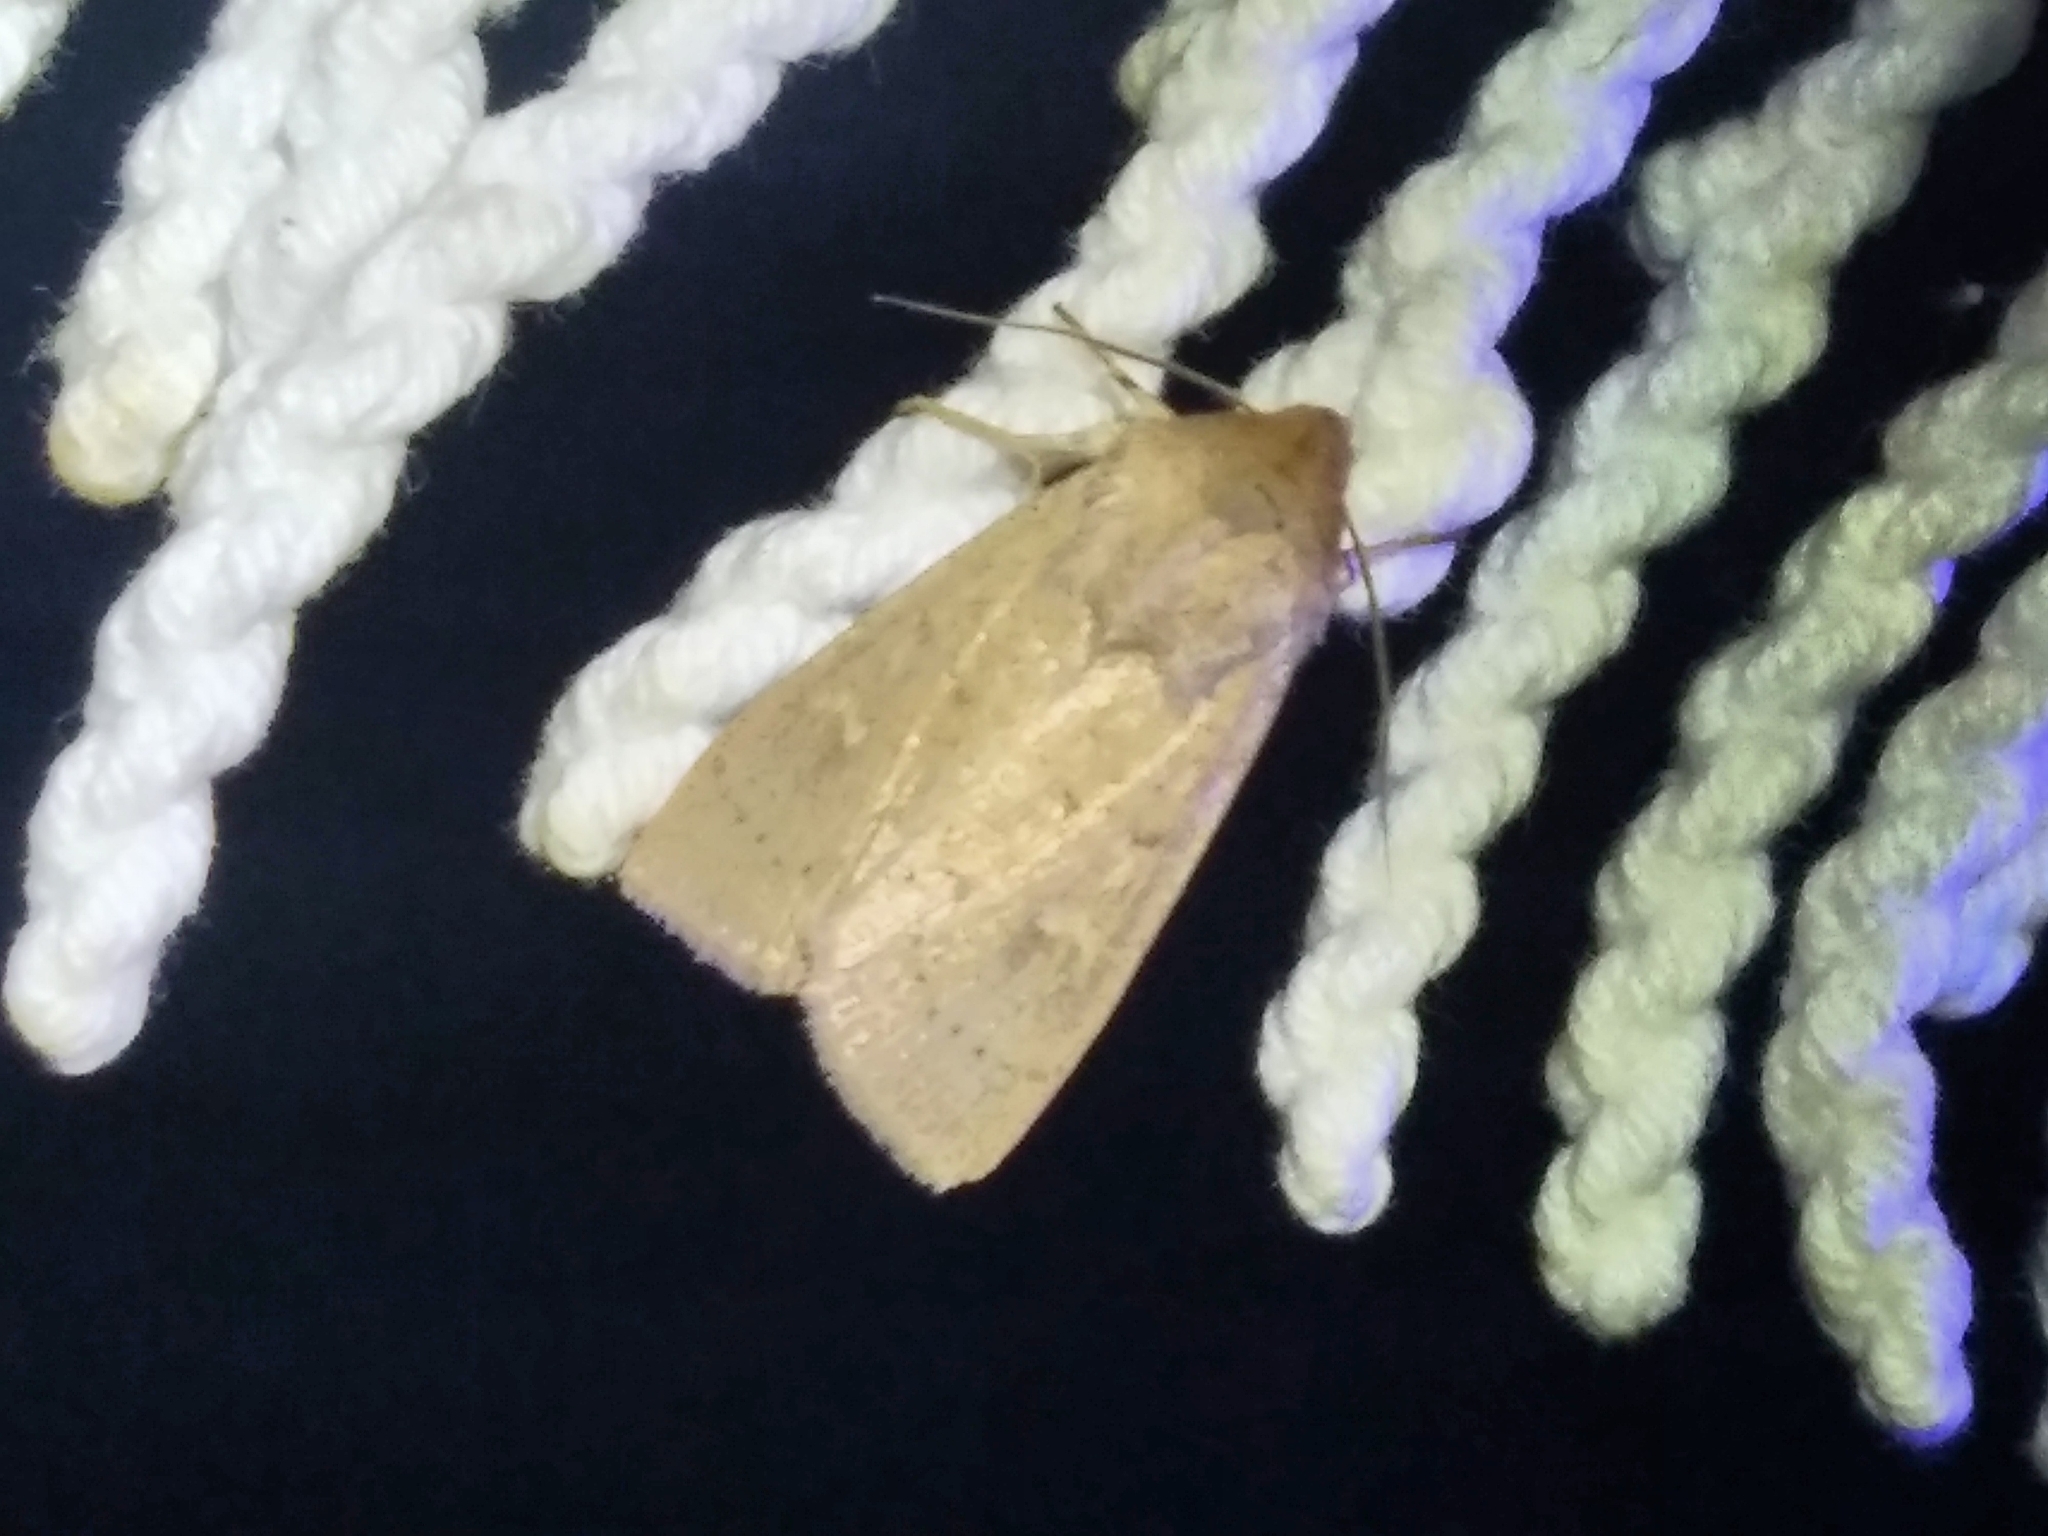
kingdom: Animalia
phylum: Arthropoda
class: Insecta
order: Lepidoptera
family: Noctuidae
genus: Mythimna
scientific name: Mythimna ferrago
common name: Clay
